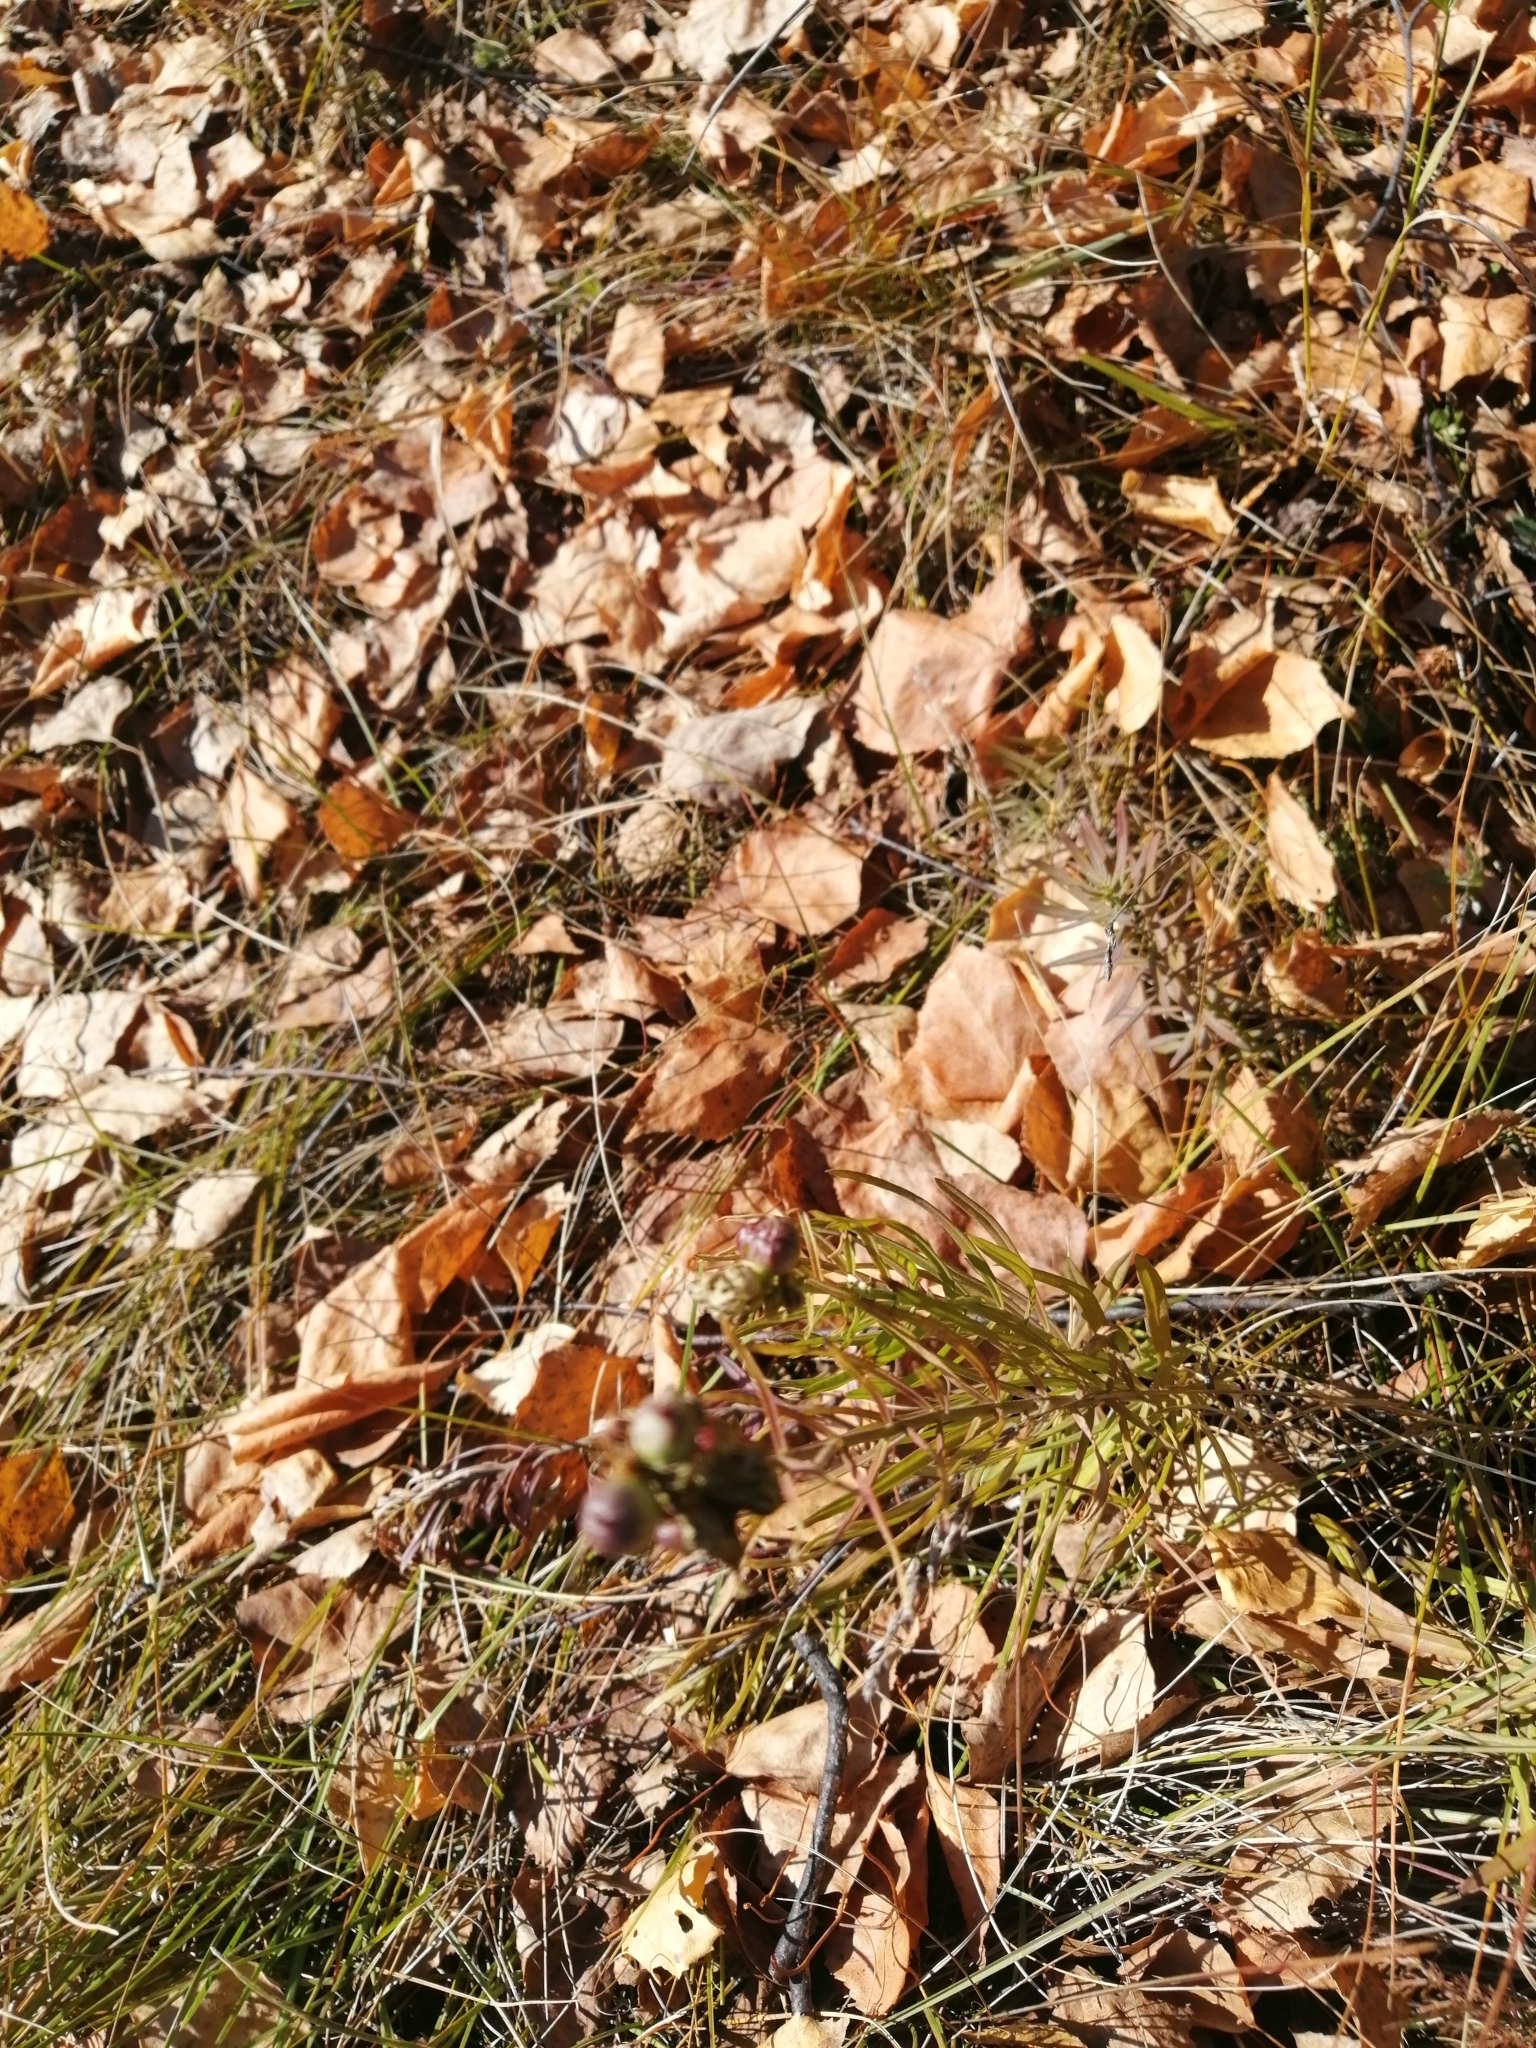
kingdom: Plantae
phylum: Tracheophyta
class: Magnoliopsida
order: Lamiales
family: Plantaginaceae
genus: Linaria
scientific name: Linaria vulgaris
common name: Butter and eggs
